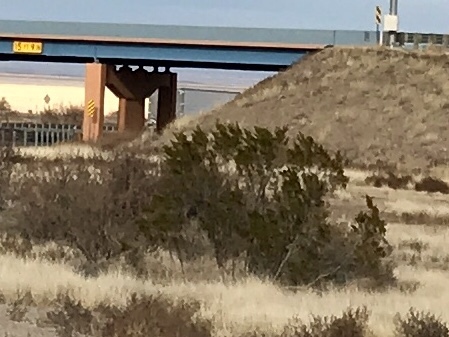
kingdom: Plantae
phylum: Tracheophyta
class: Magnoliopsida
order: Zygophyllales
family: Zygophyllaceae
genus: Larrea
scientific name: Larrea tridentata
